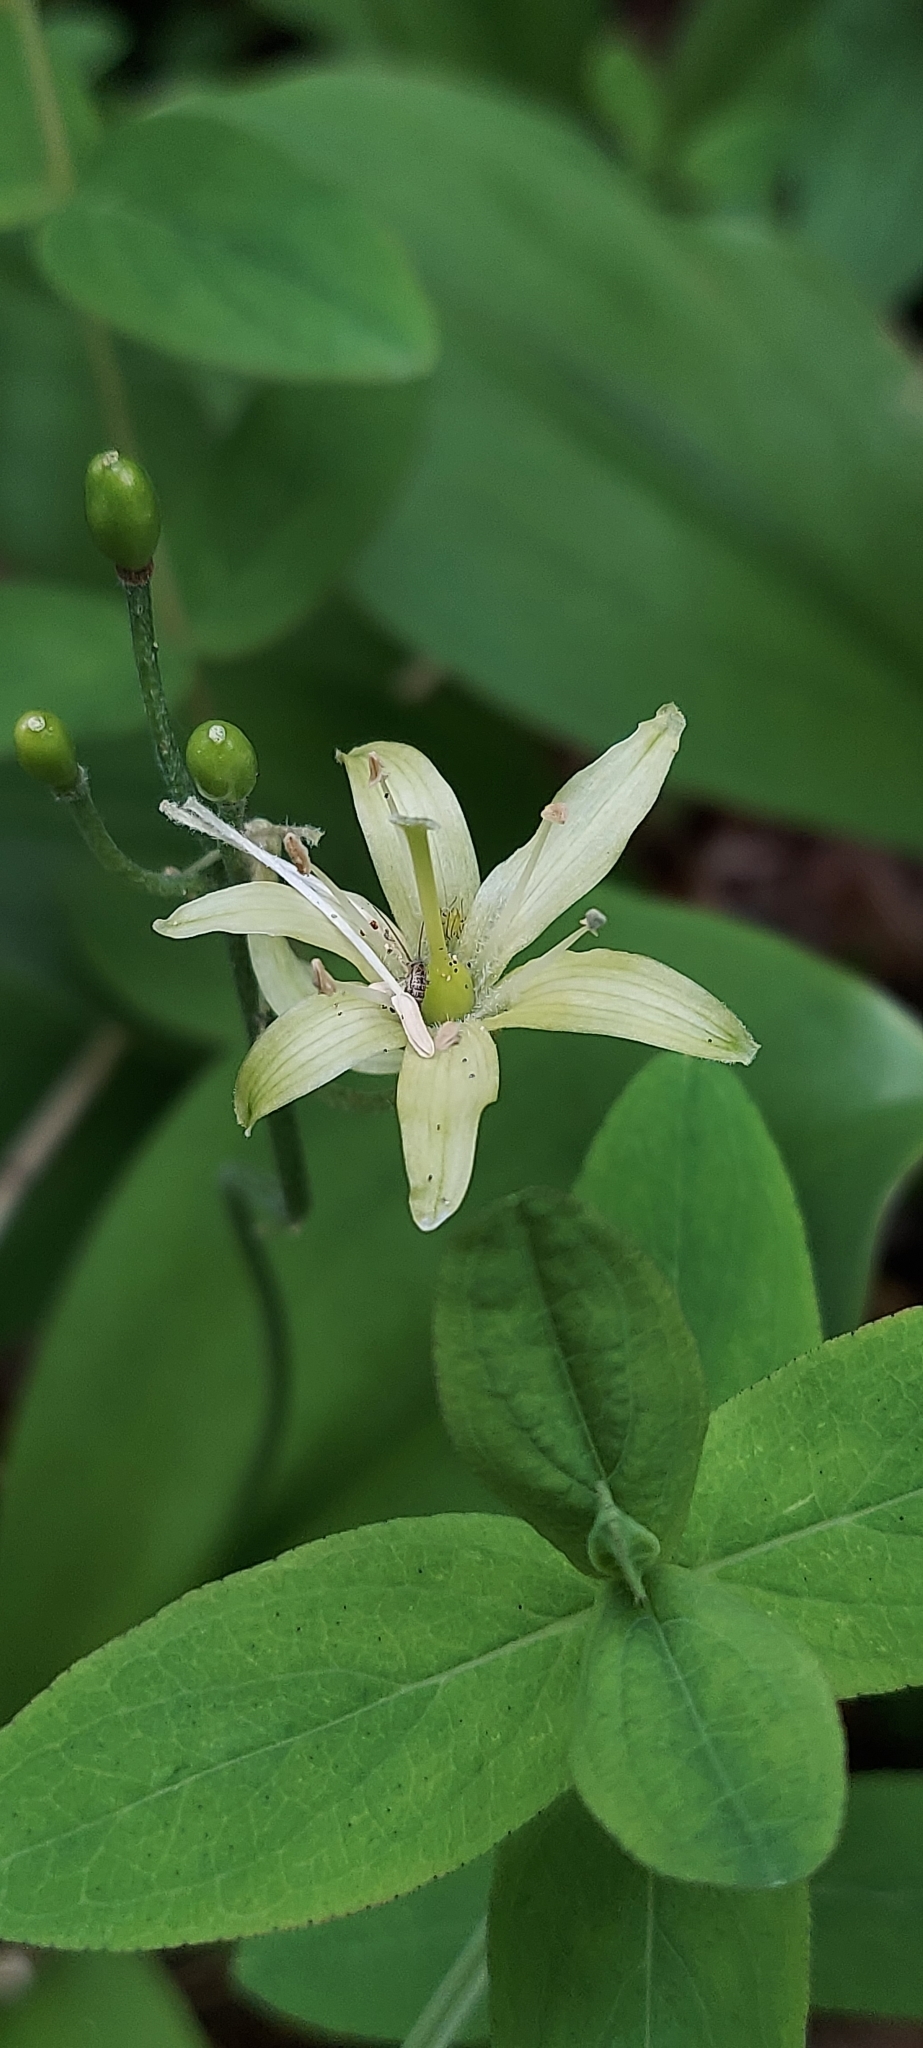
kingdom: Plantae
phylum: Tracheophyta
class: Liliopsida
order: Liliales
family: Liliaceae
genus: Clintonia
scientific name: Clintonia borealis
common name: Yellow clintonia
